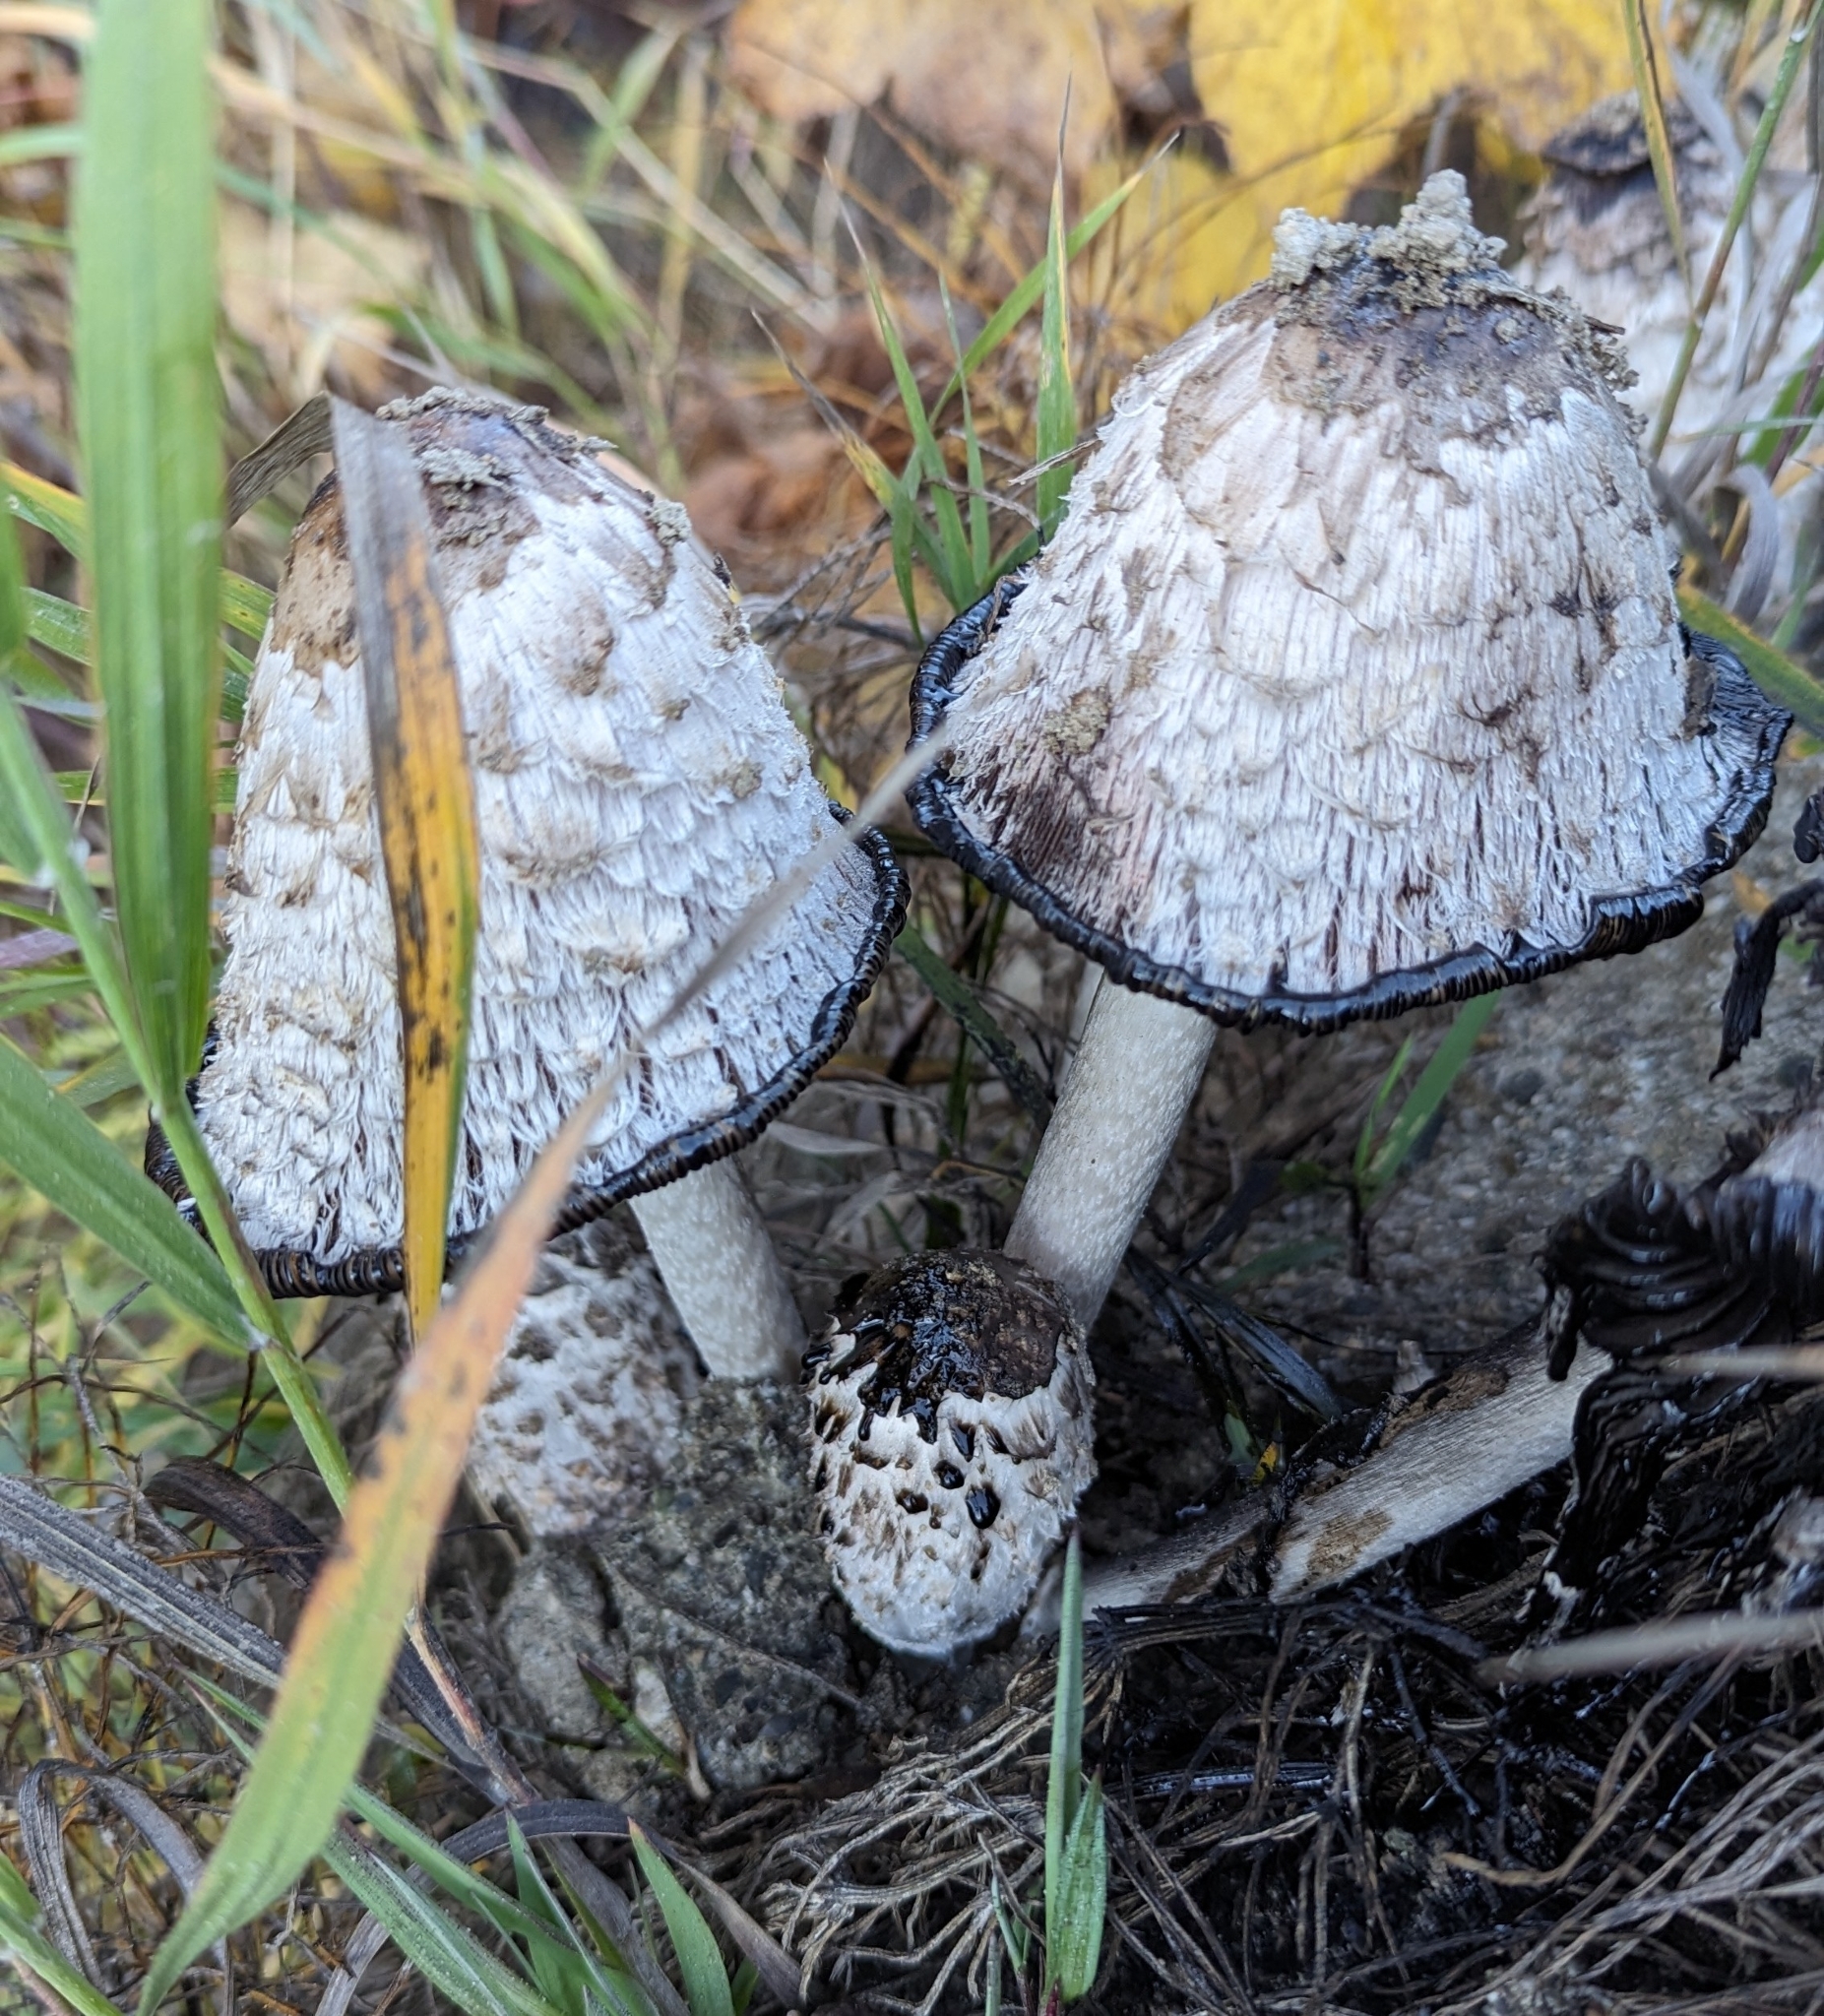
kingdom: Fungi
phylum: Basidiomycota
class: Agaricomycetes
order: Agaricales
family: Agaricaceae
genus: Coprinus
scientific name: Coprinus comatus
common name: Lawyer's wig
